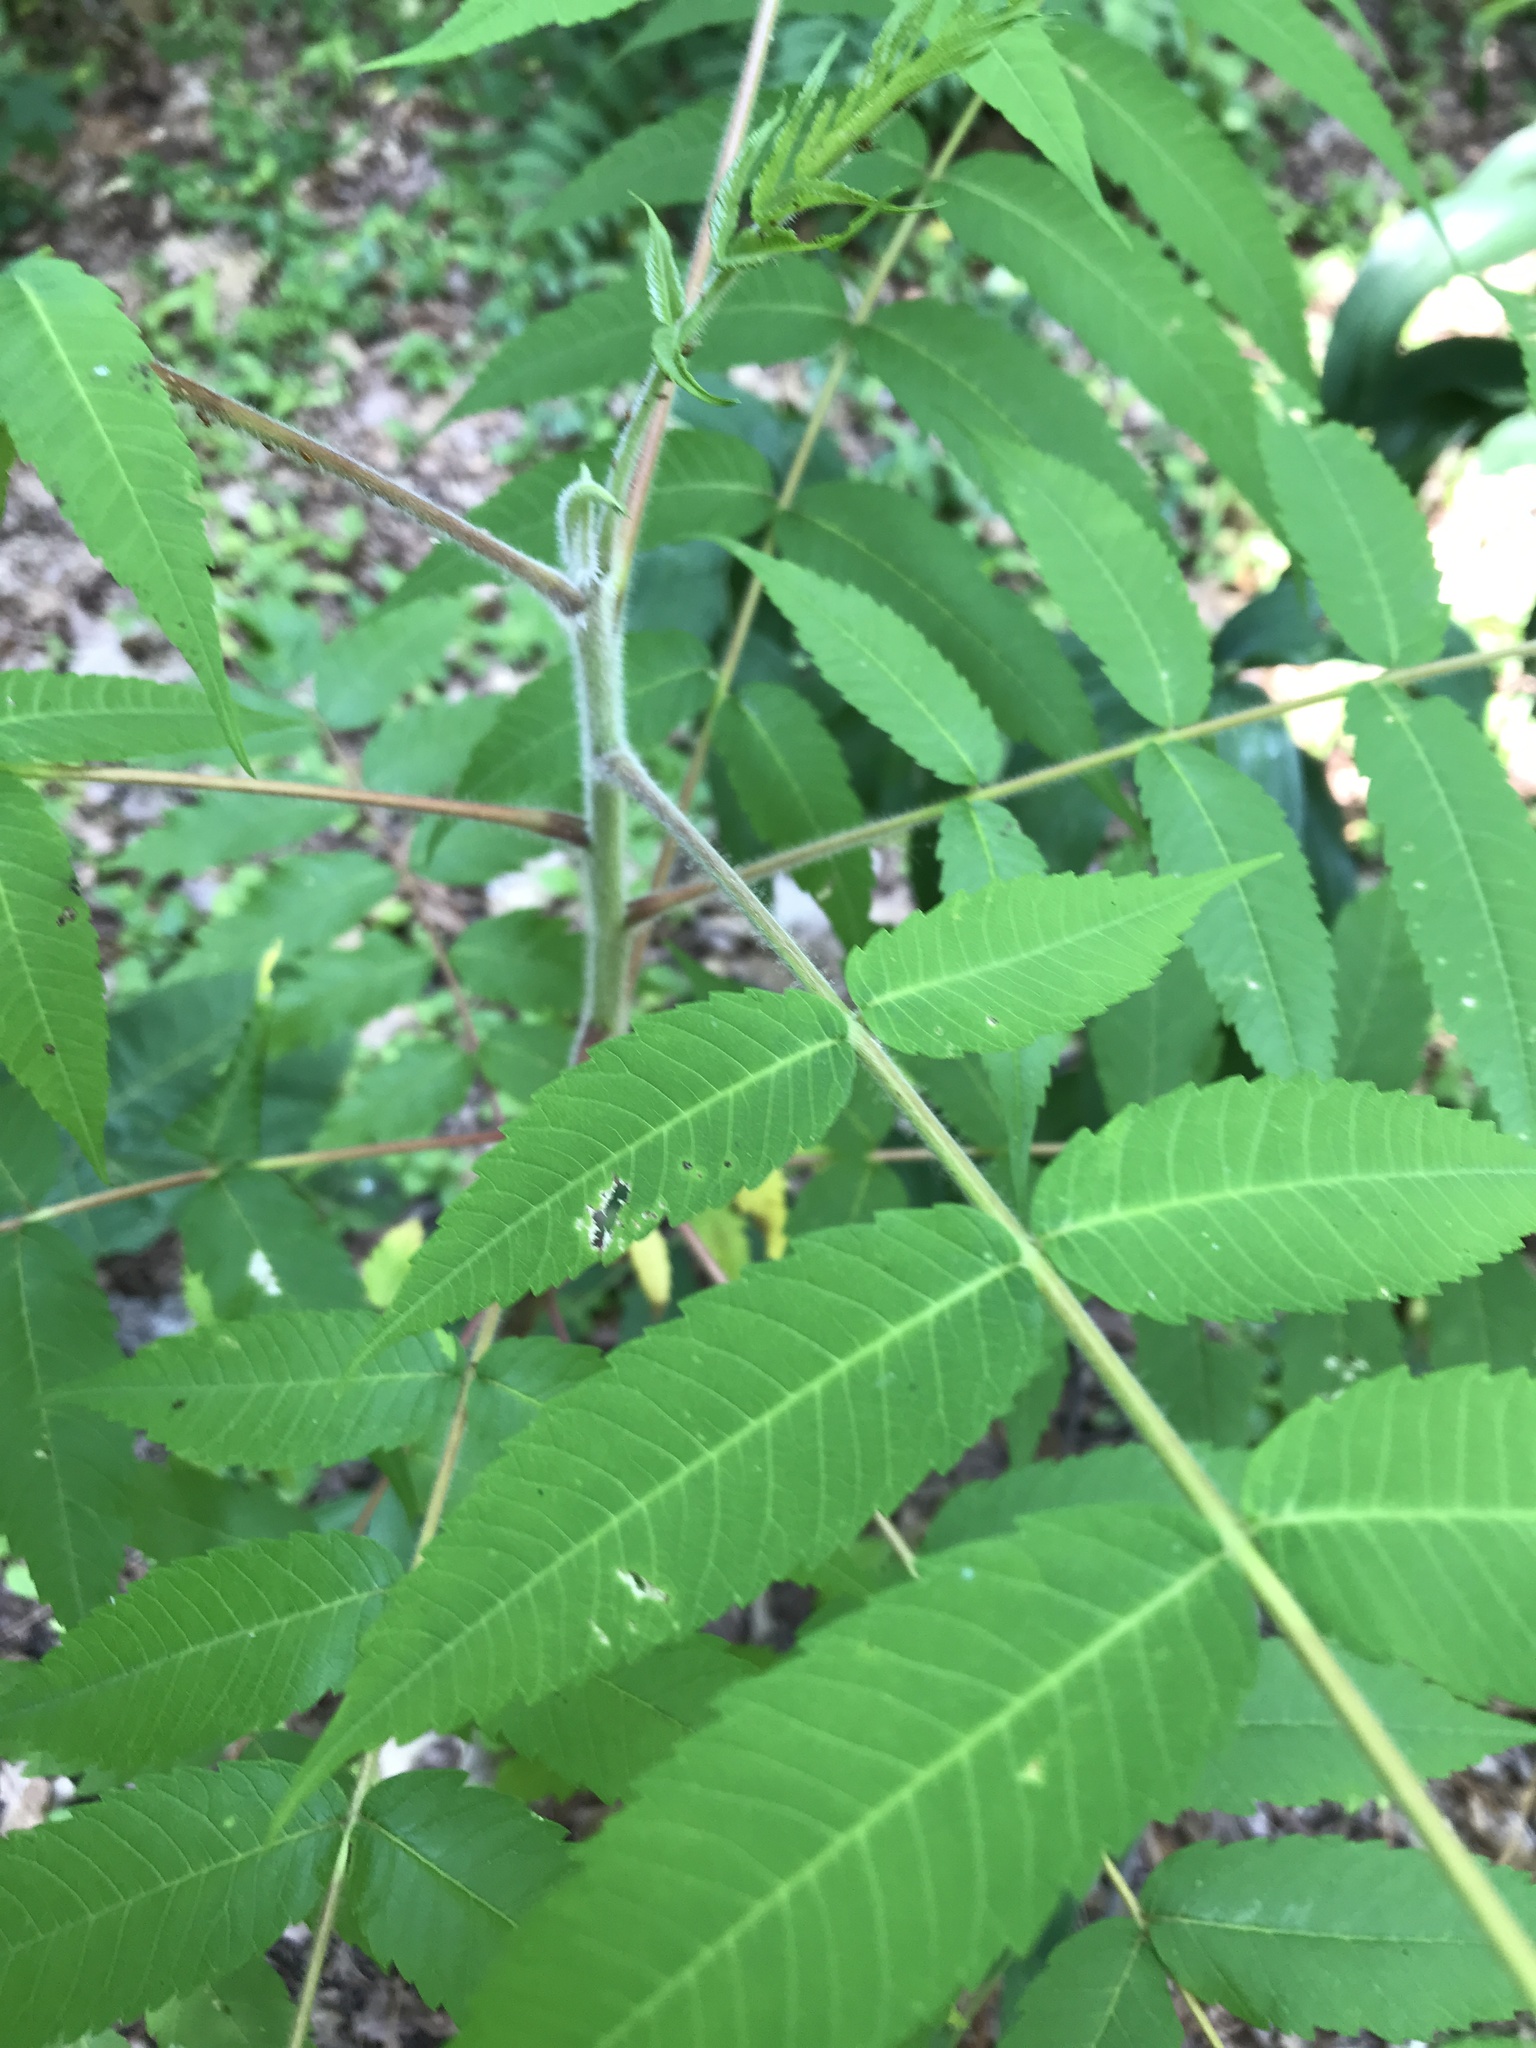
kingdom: Plantae
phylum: Tracheophyta
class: Magnoliopsida
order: Sapindales
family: Anacardiaceae
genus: Rhus
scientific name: Rhus typhina
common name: Staghorn sumac
